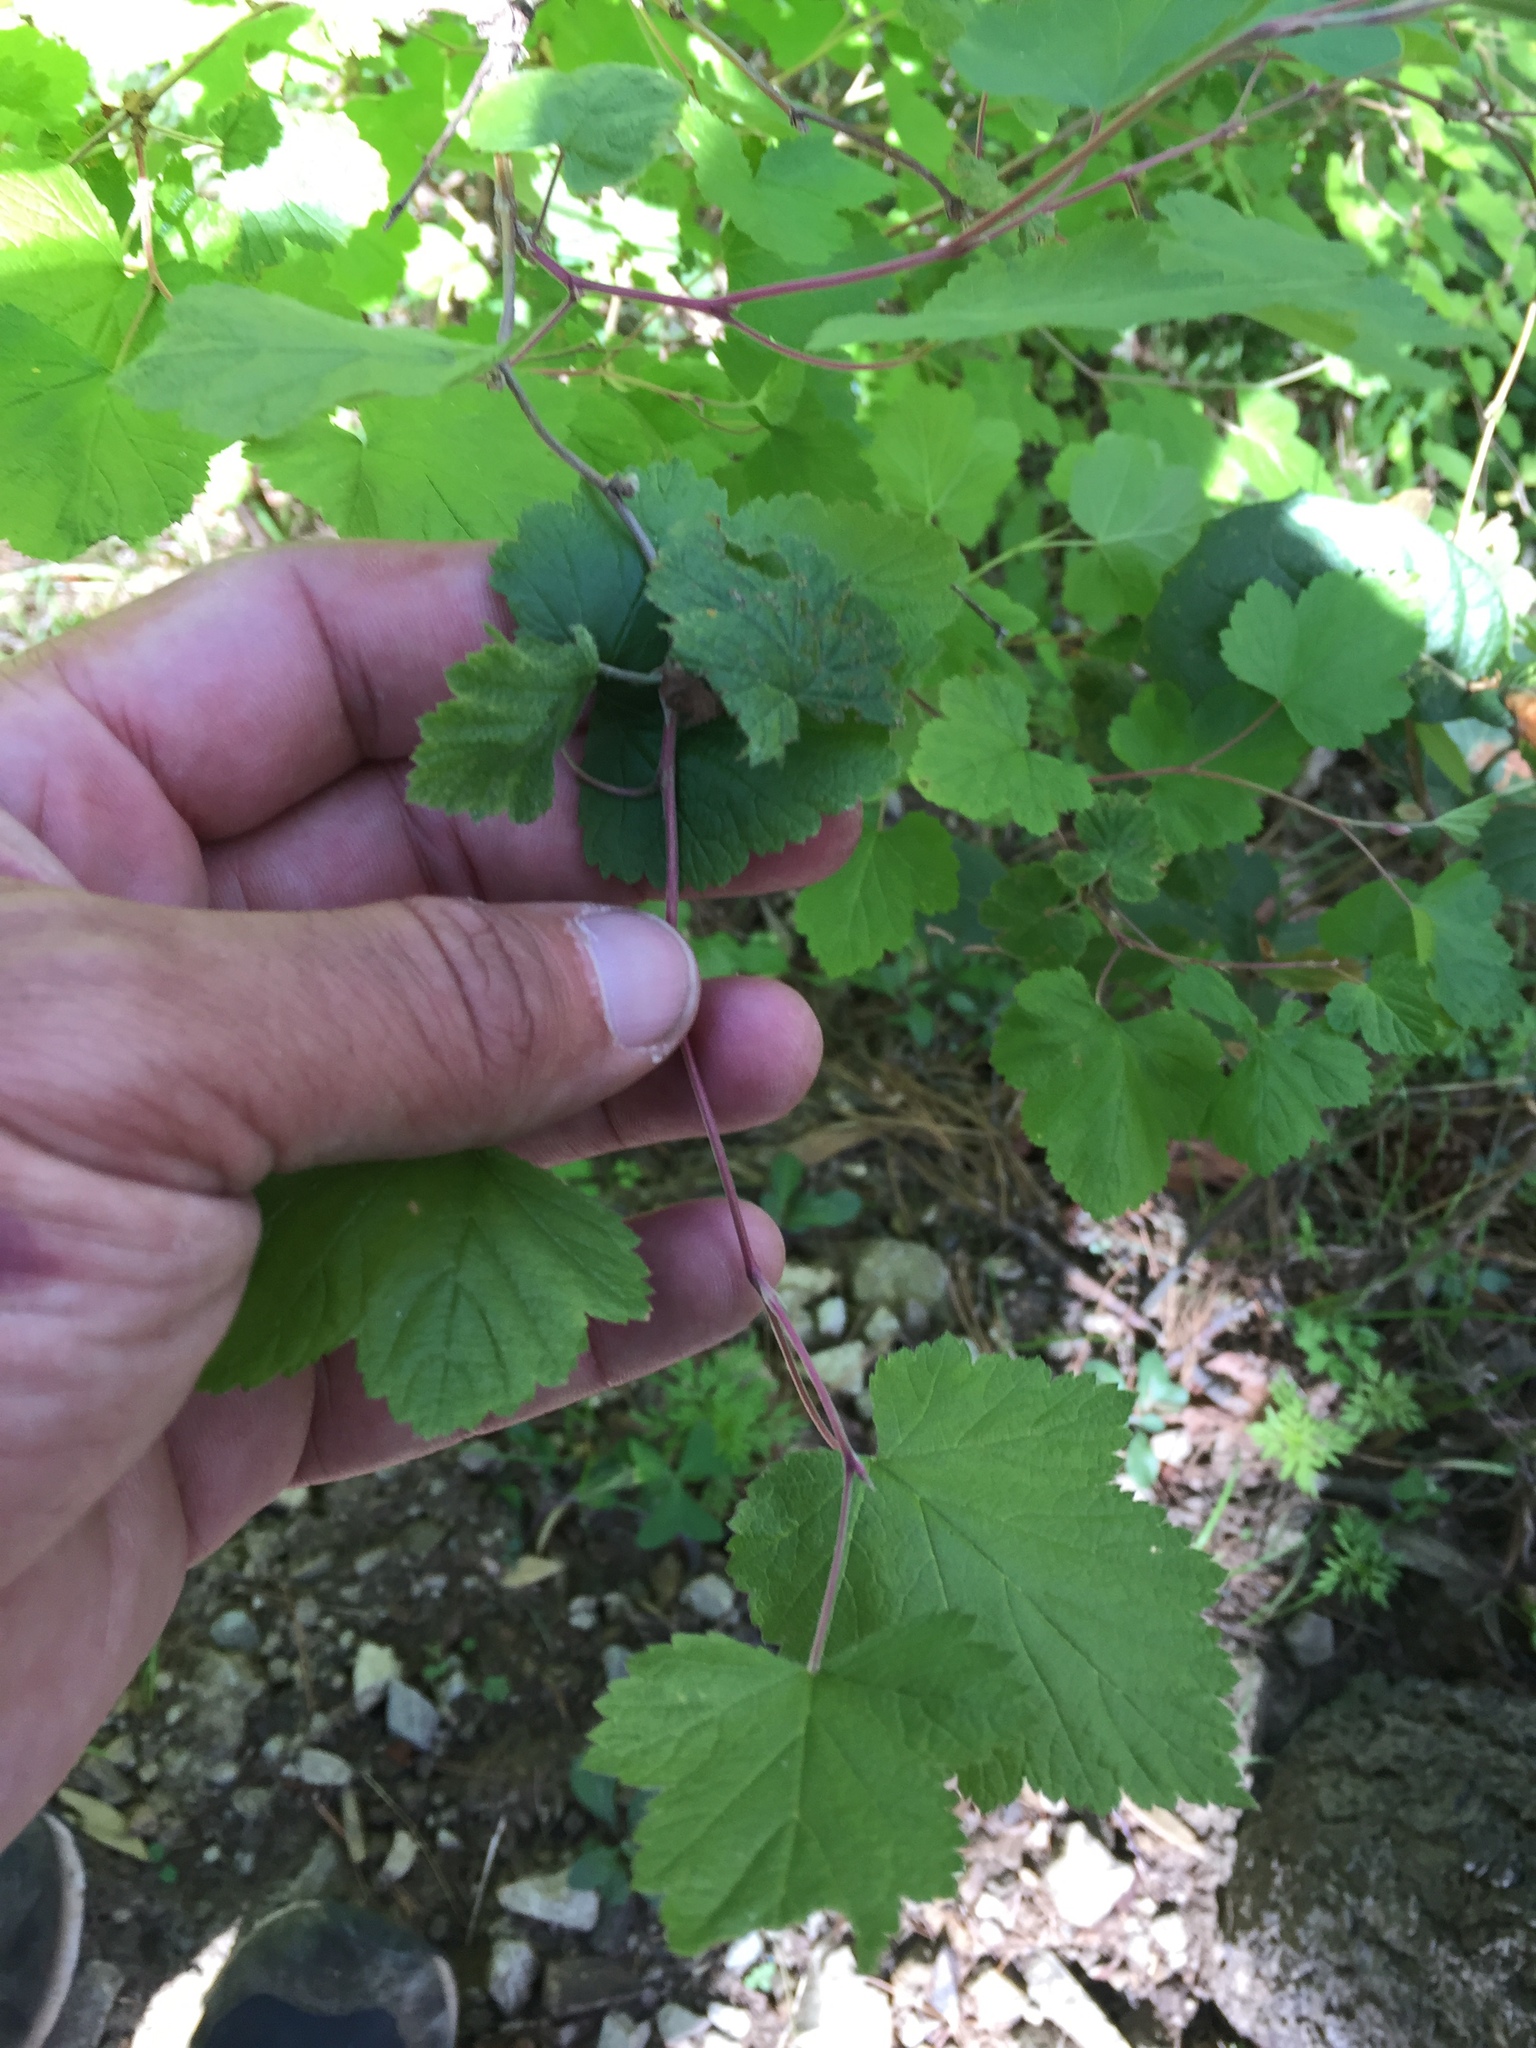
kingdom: Plantae
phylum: Tracheophyta
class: Magnoliopsida
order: Rosales
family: Rosaceae
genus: Rubus
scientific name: Rubus neomexicanus
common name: New mexico raspberry
